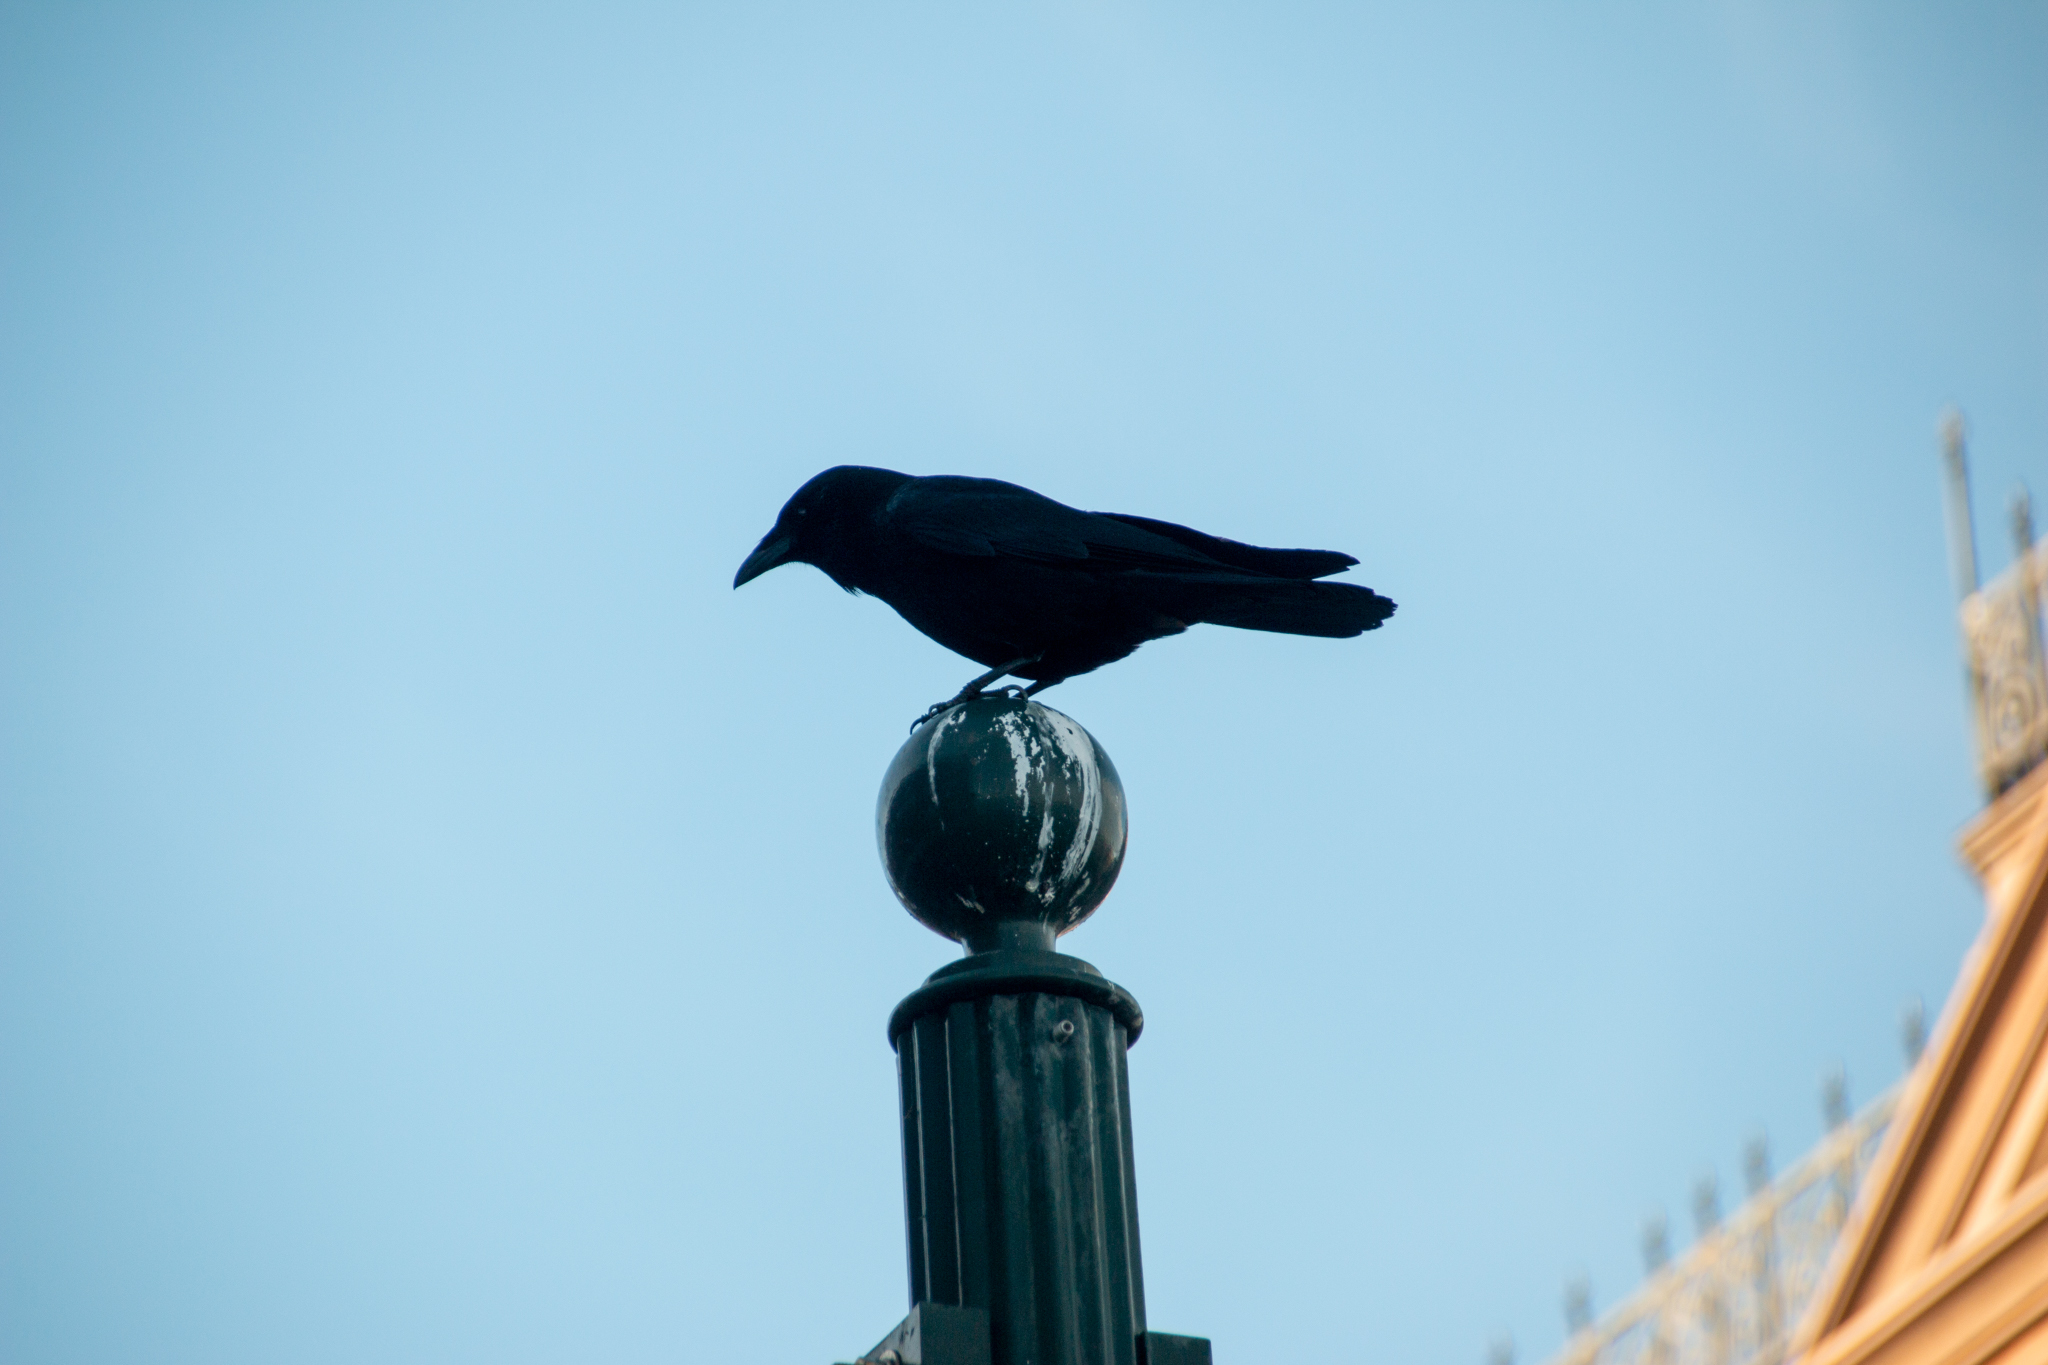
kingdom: Animalia
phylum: Chordata
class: Aves
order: Passeriformes
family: Corvidae
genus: Corvus
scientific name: Corvus brachyrhynchos
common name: American crow
